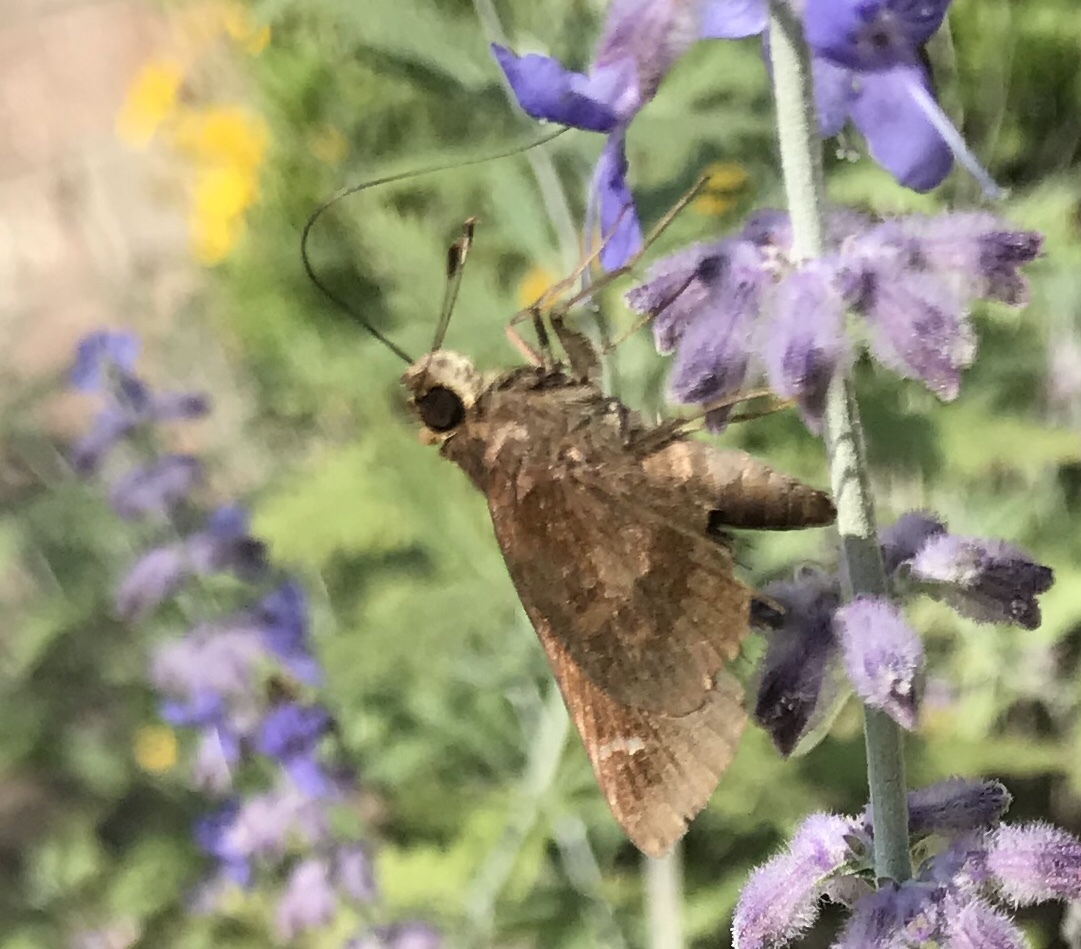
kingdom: Animalia
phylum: Arthropoda
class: Insecta
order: Lepidoptera
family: Hesperiidae
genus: Lerema
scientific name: Lerema accius
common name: Clouded skipper
